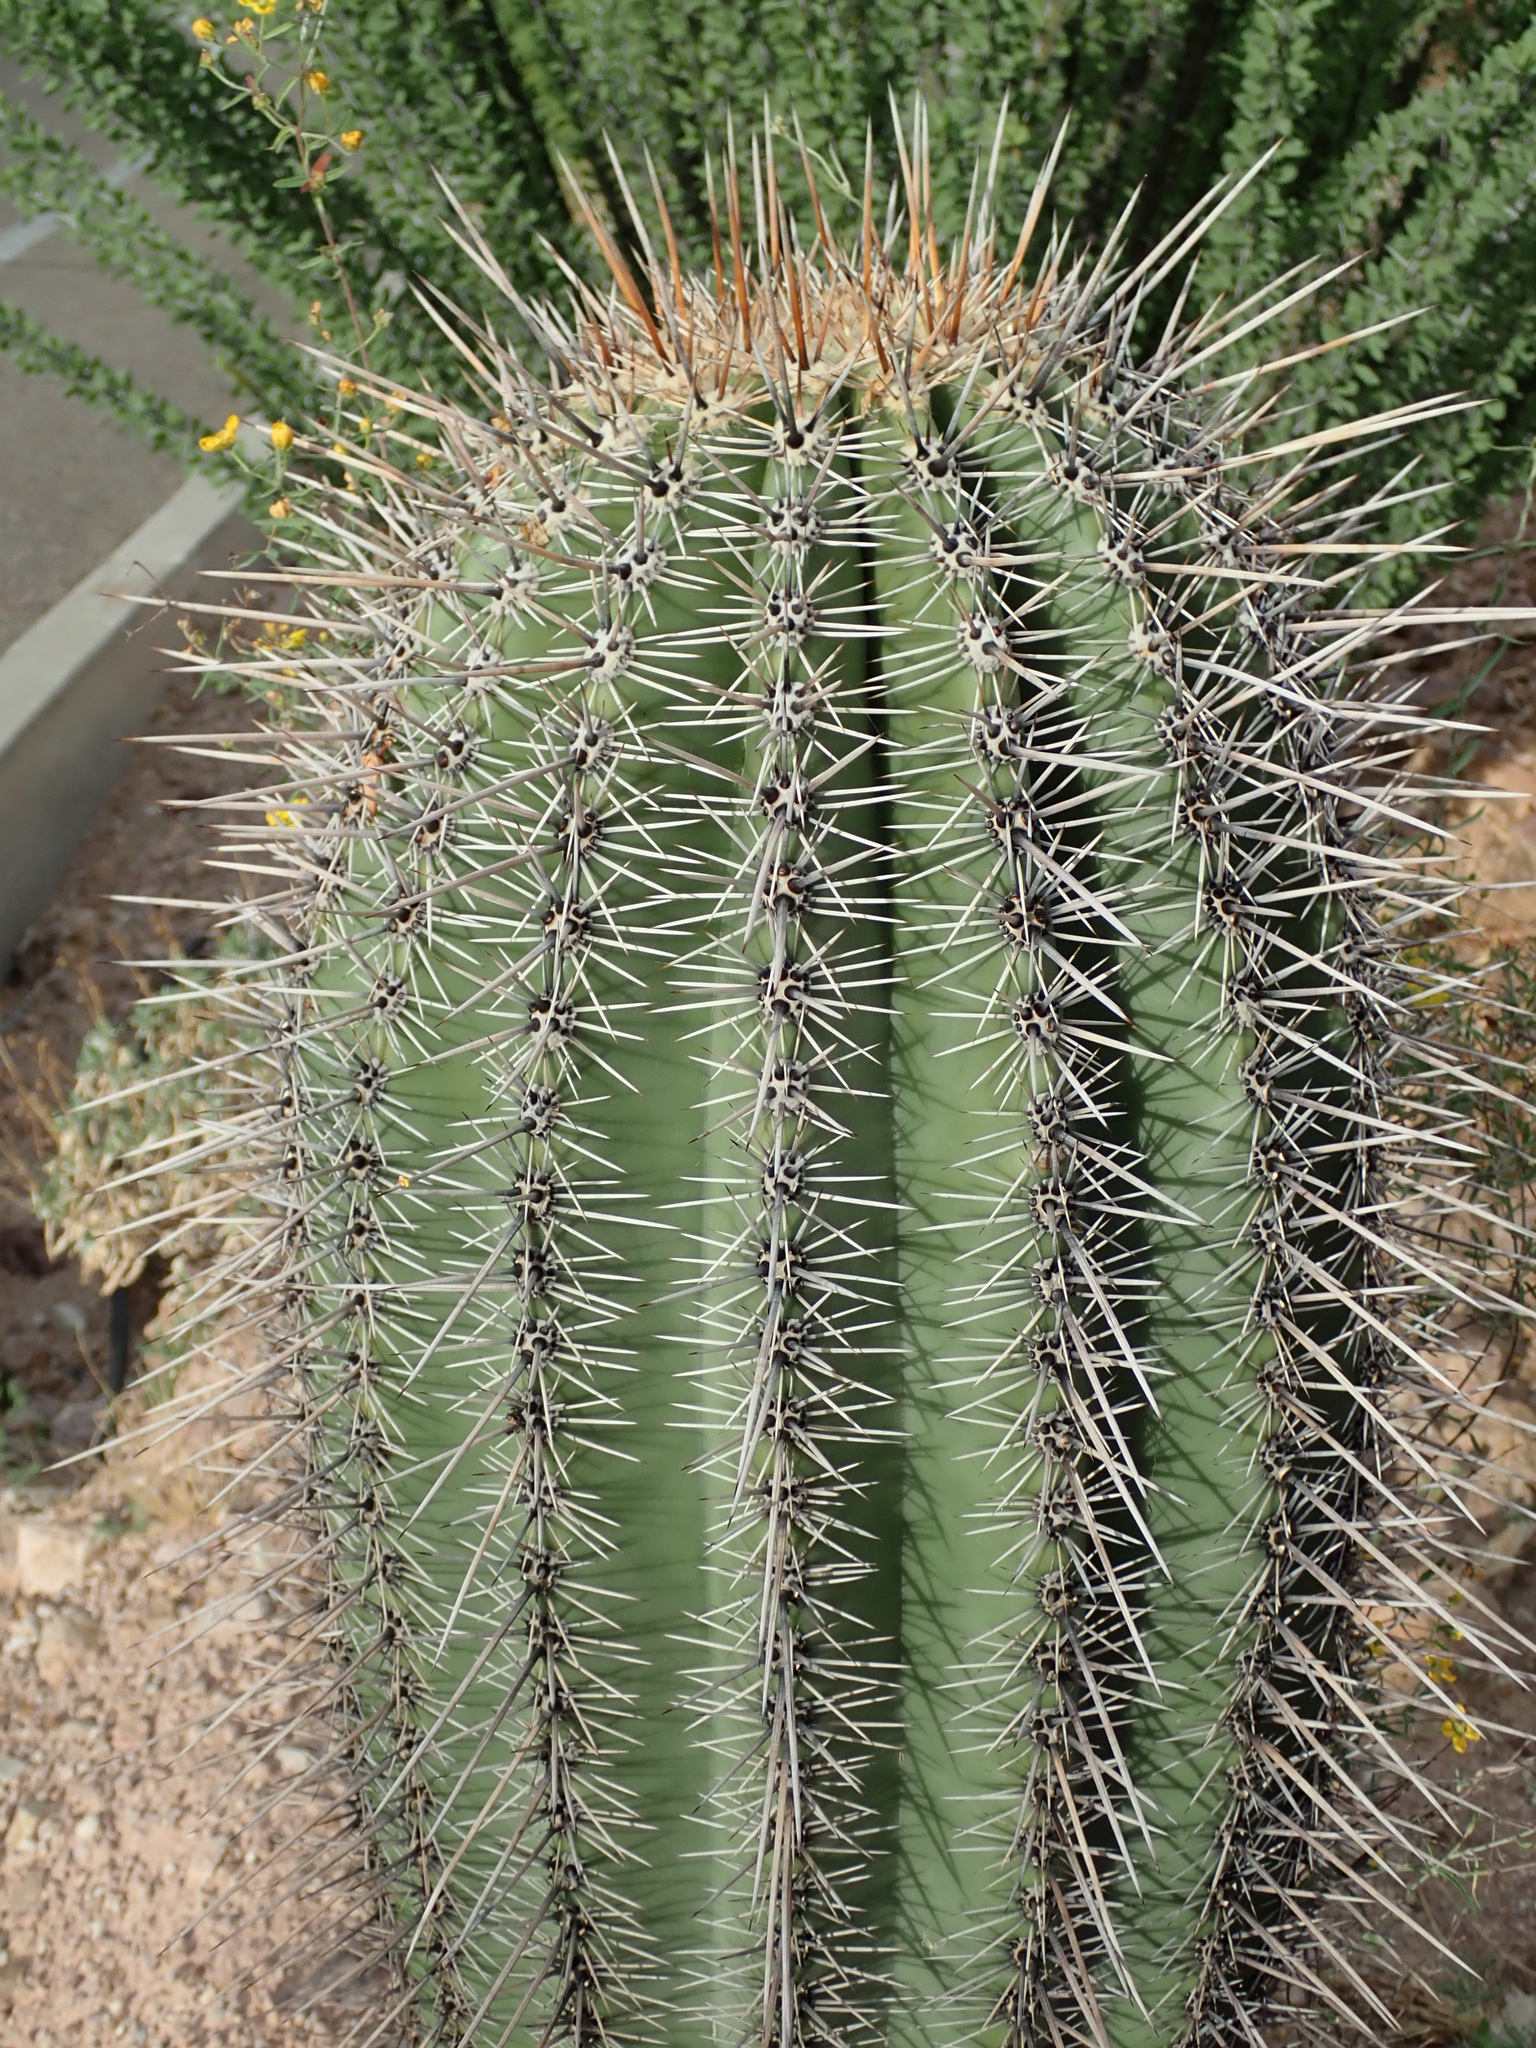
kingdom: Plantae
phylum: Tracheophyta
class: Magnoliopsida
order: Caryophyllales
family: Cactaceae
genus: Carnegiea
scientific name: Carnegiea gigantea
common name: Saguaro
